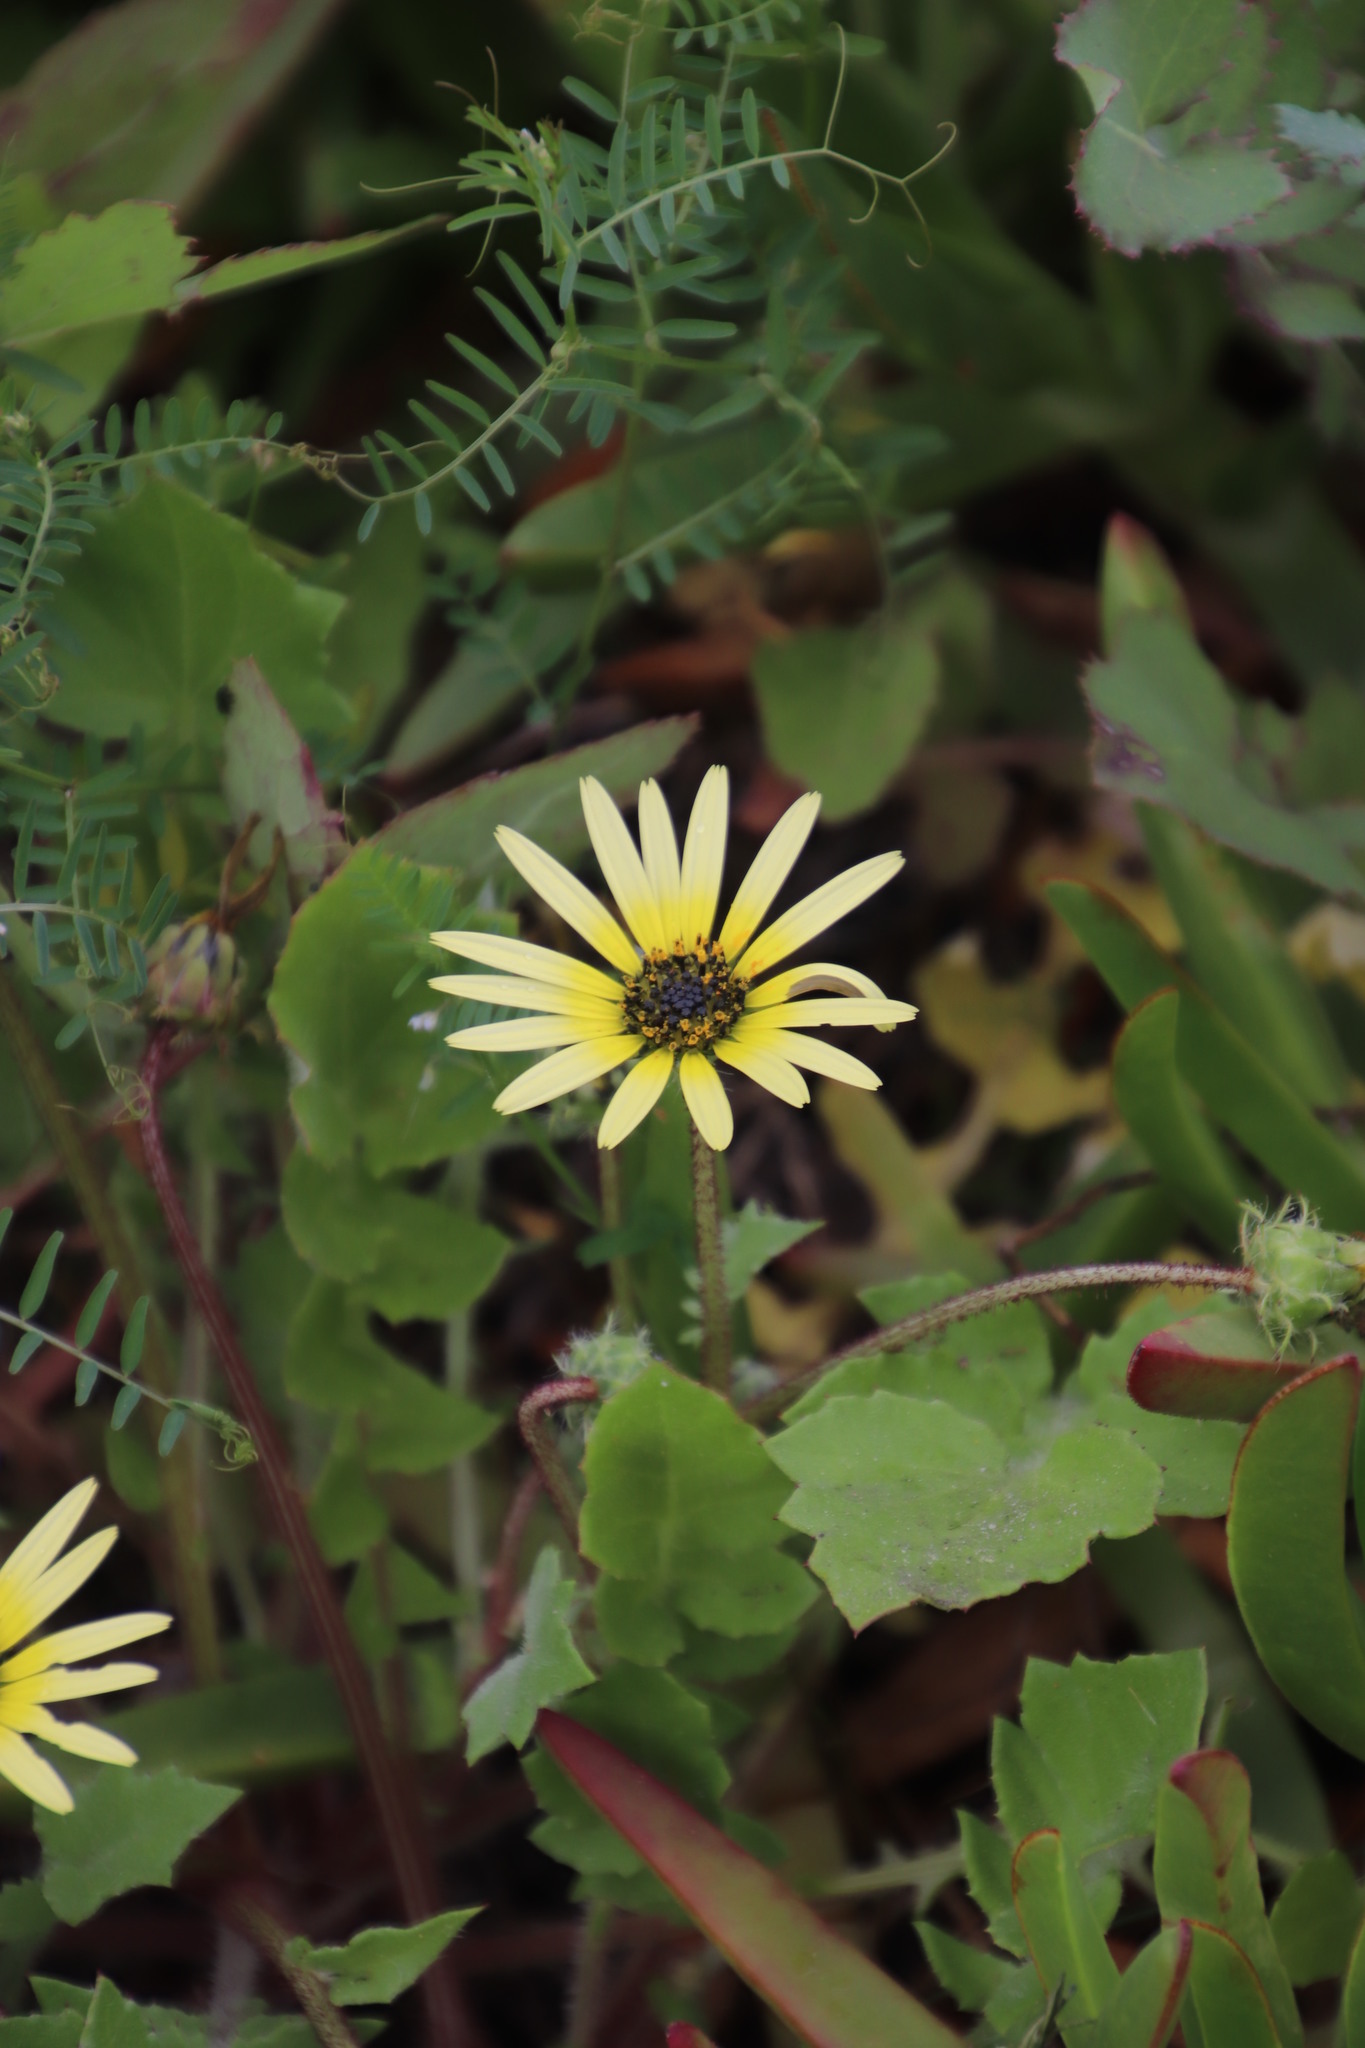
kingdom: Plantae
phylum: Tracheophyta
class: Magnoliopsida
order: Asterales
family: Asteraceae
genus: Arctotheca
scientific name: Arctotheca calendula
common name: Capeweed
